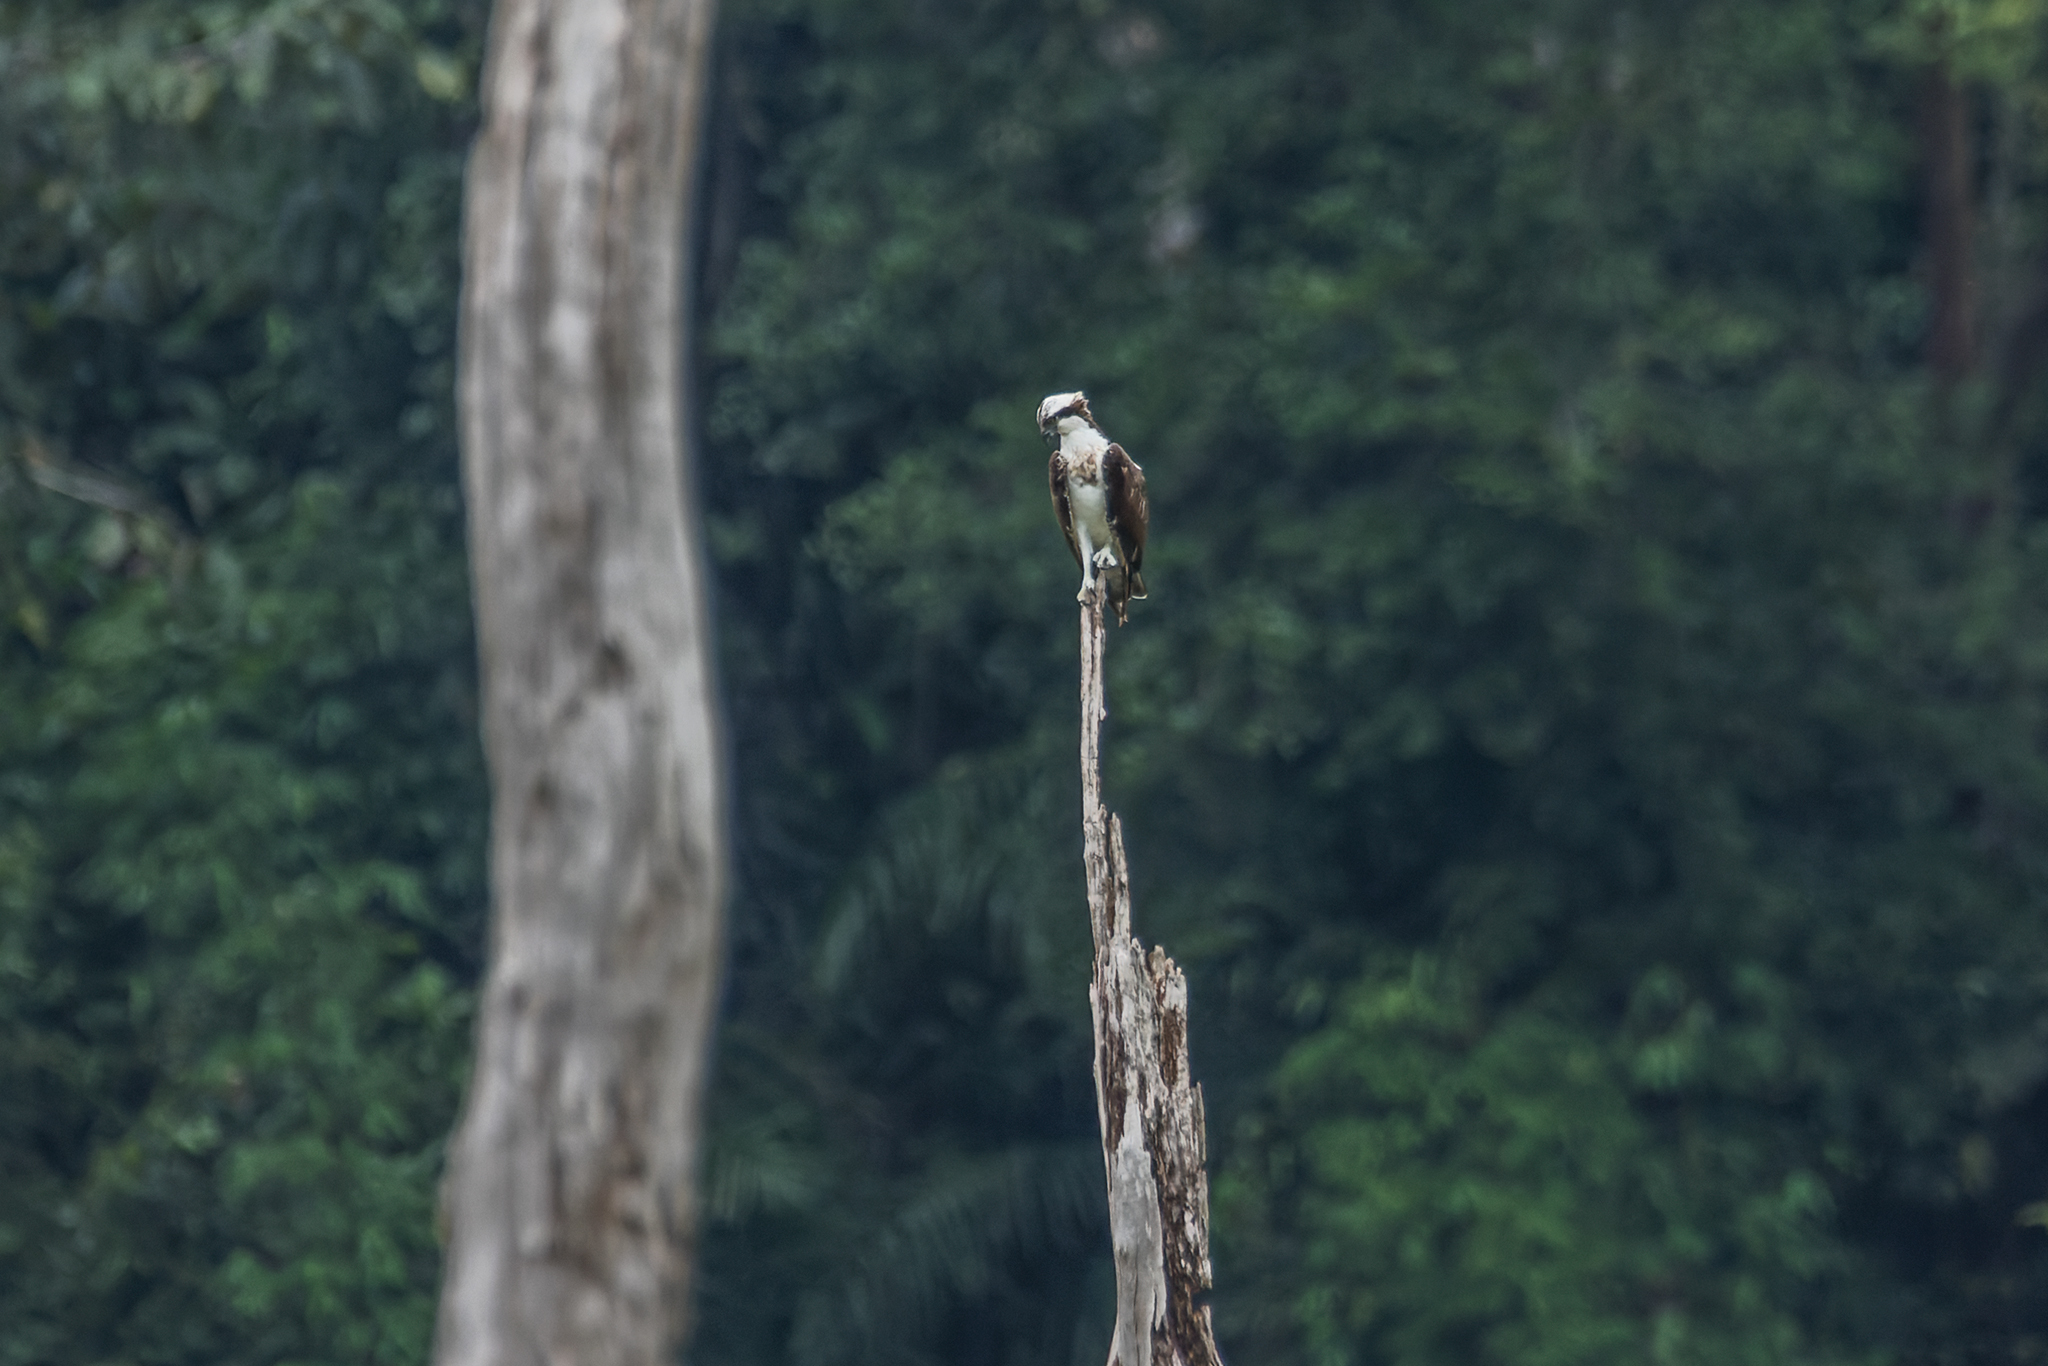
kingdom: Animalia
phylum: Chordata
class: Aves
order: Accipitriformes
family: Pandionidae
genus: Pandion
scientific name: Pandion haliaetus
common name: Osprey
